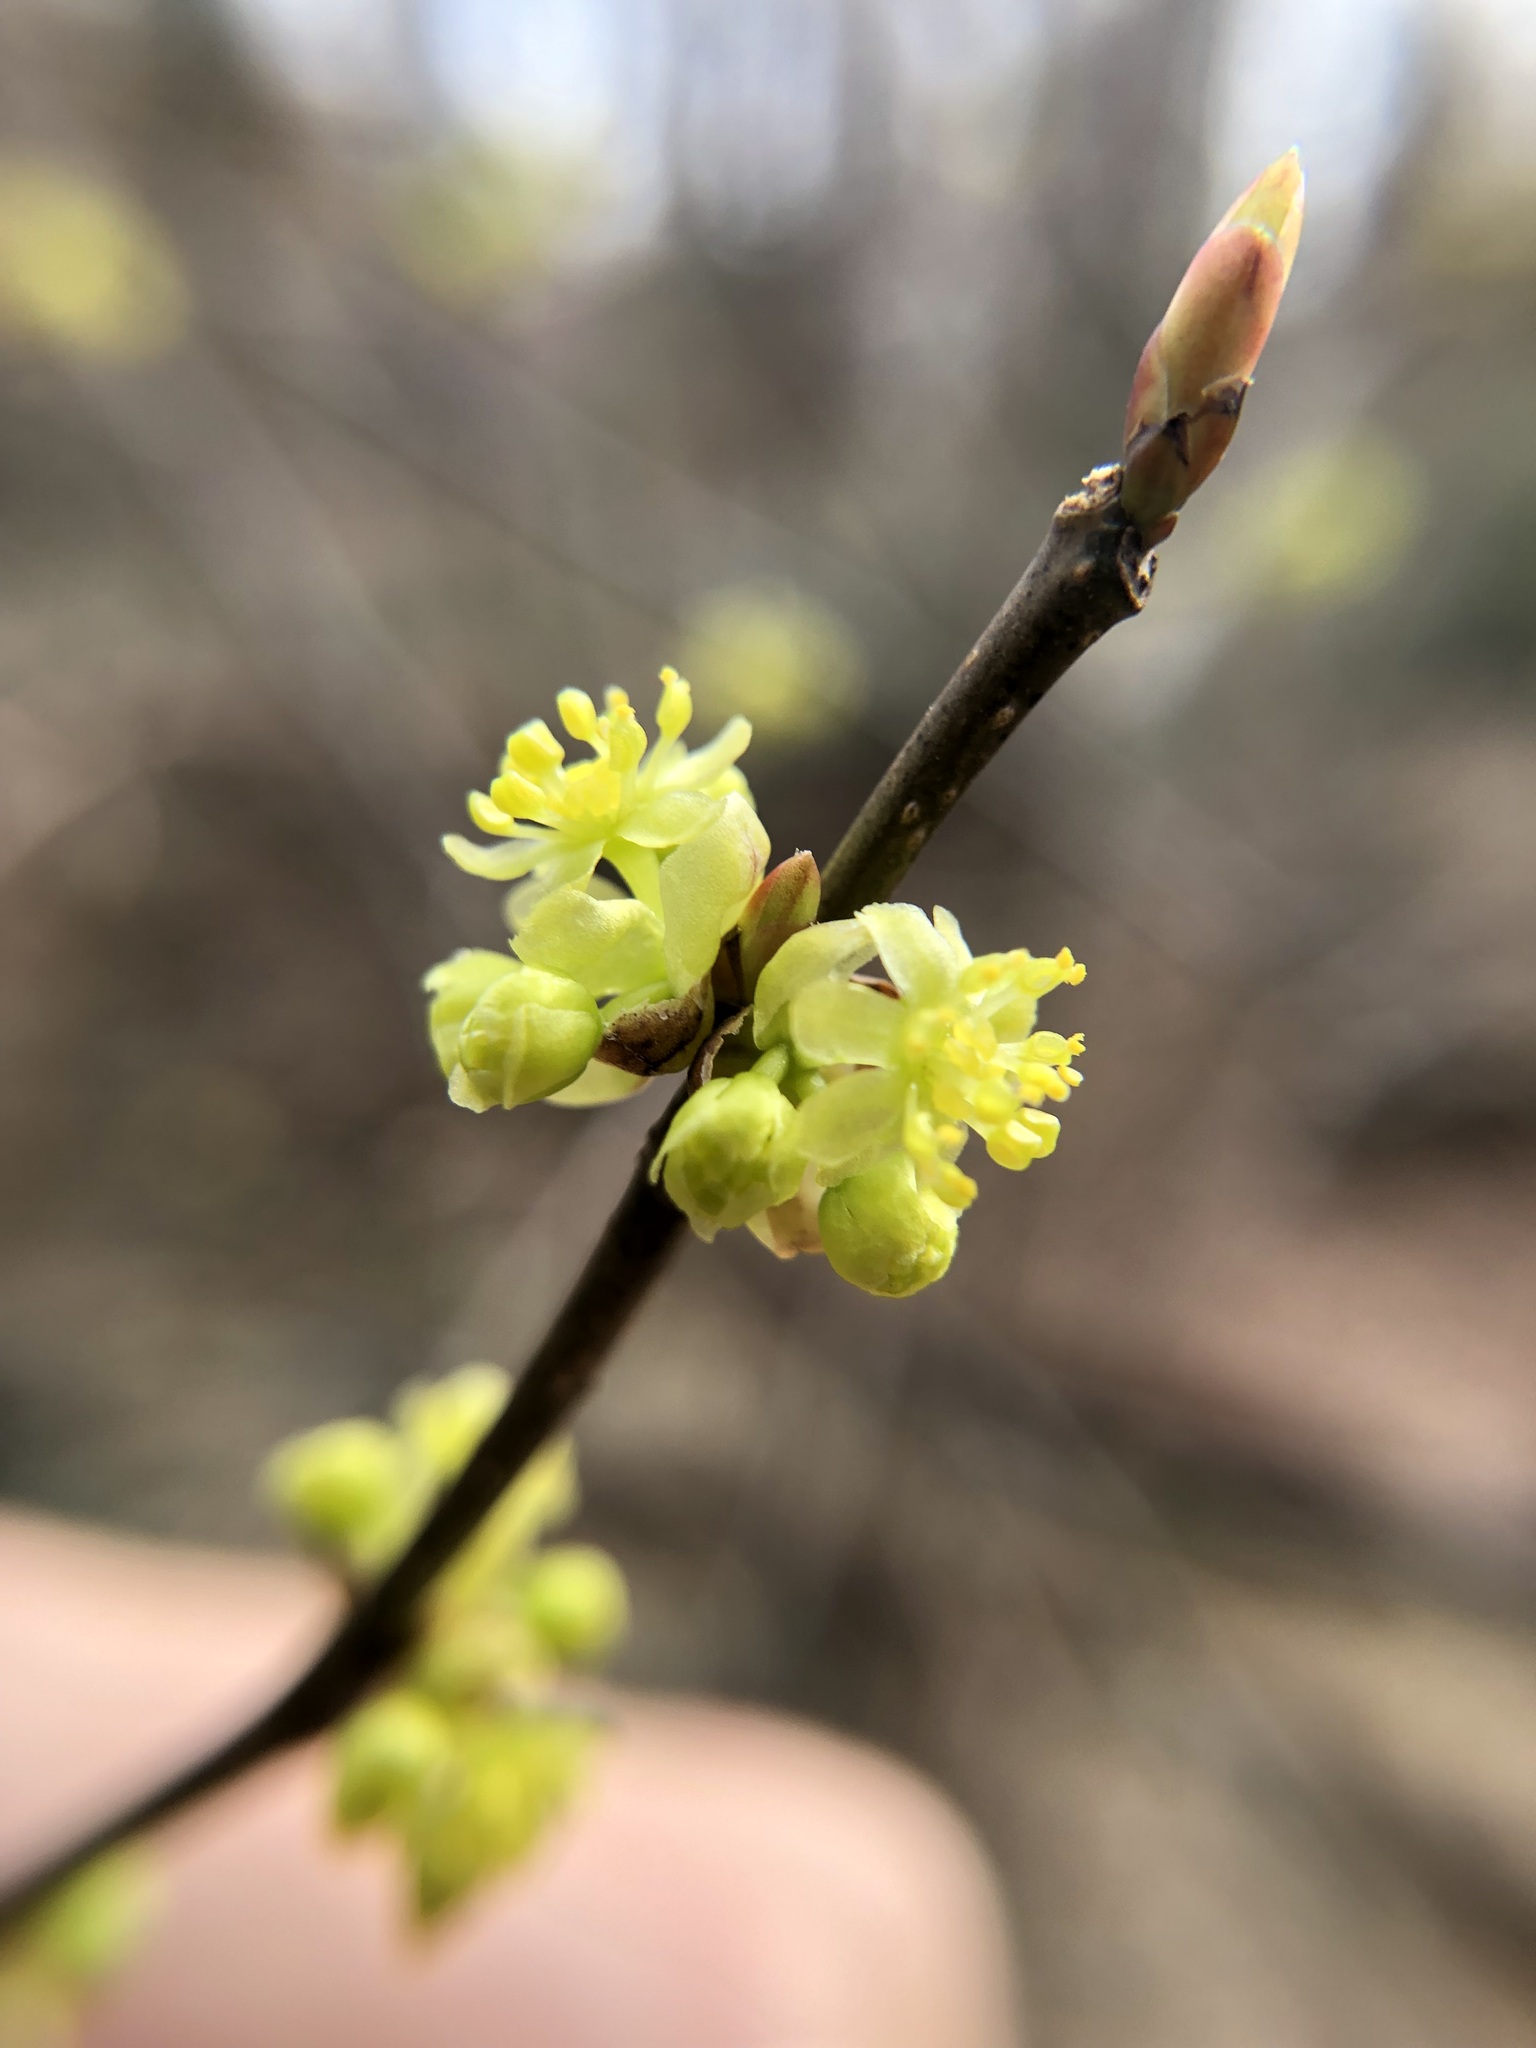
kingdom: Plantae
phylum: Tracheophyta
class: Magnoliopsida
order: Laurales
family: Lauraceae
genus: Lindera
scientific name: Lindera benzoin
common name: Spicebush
